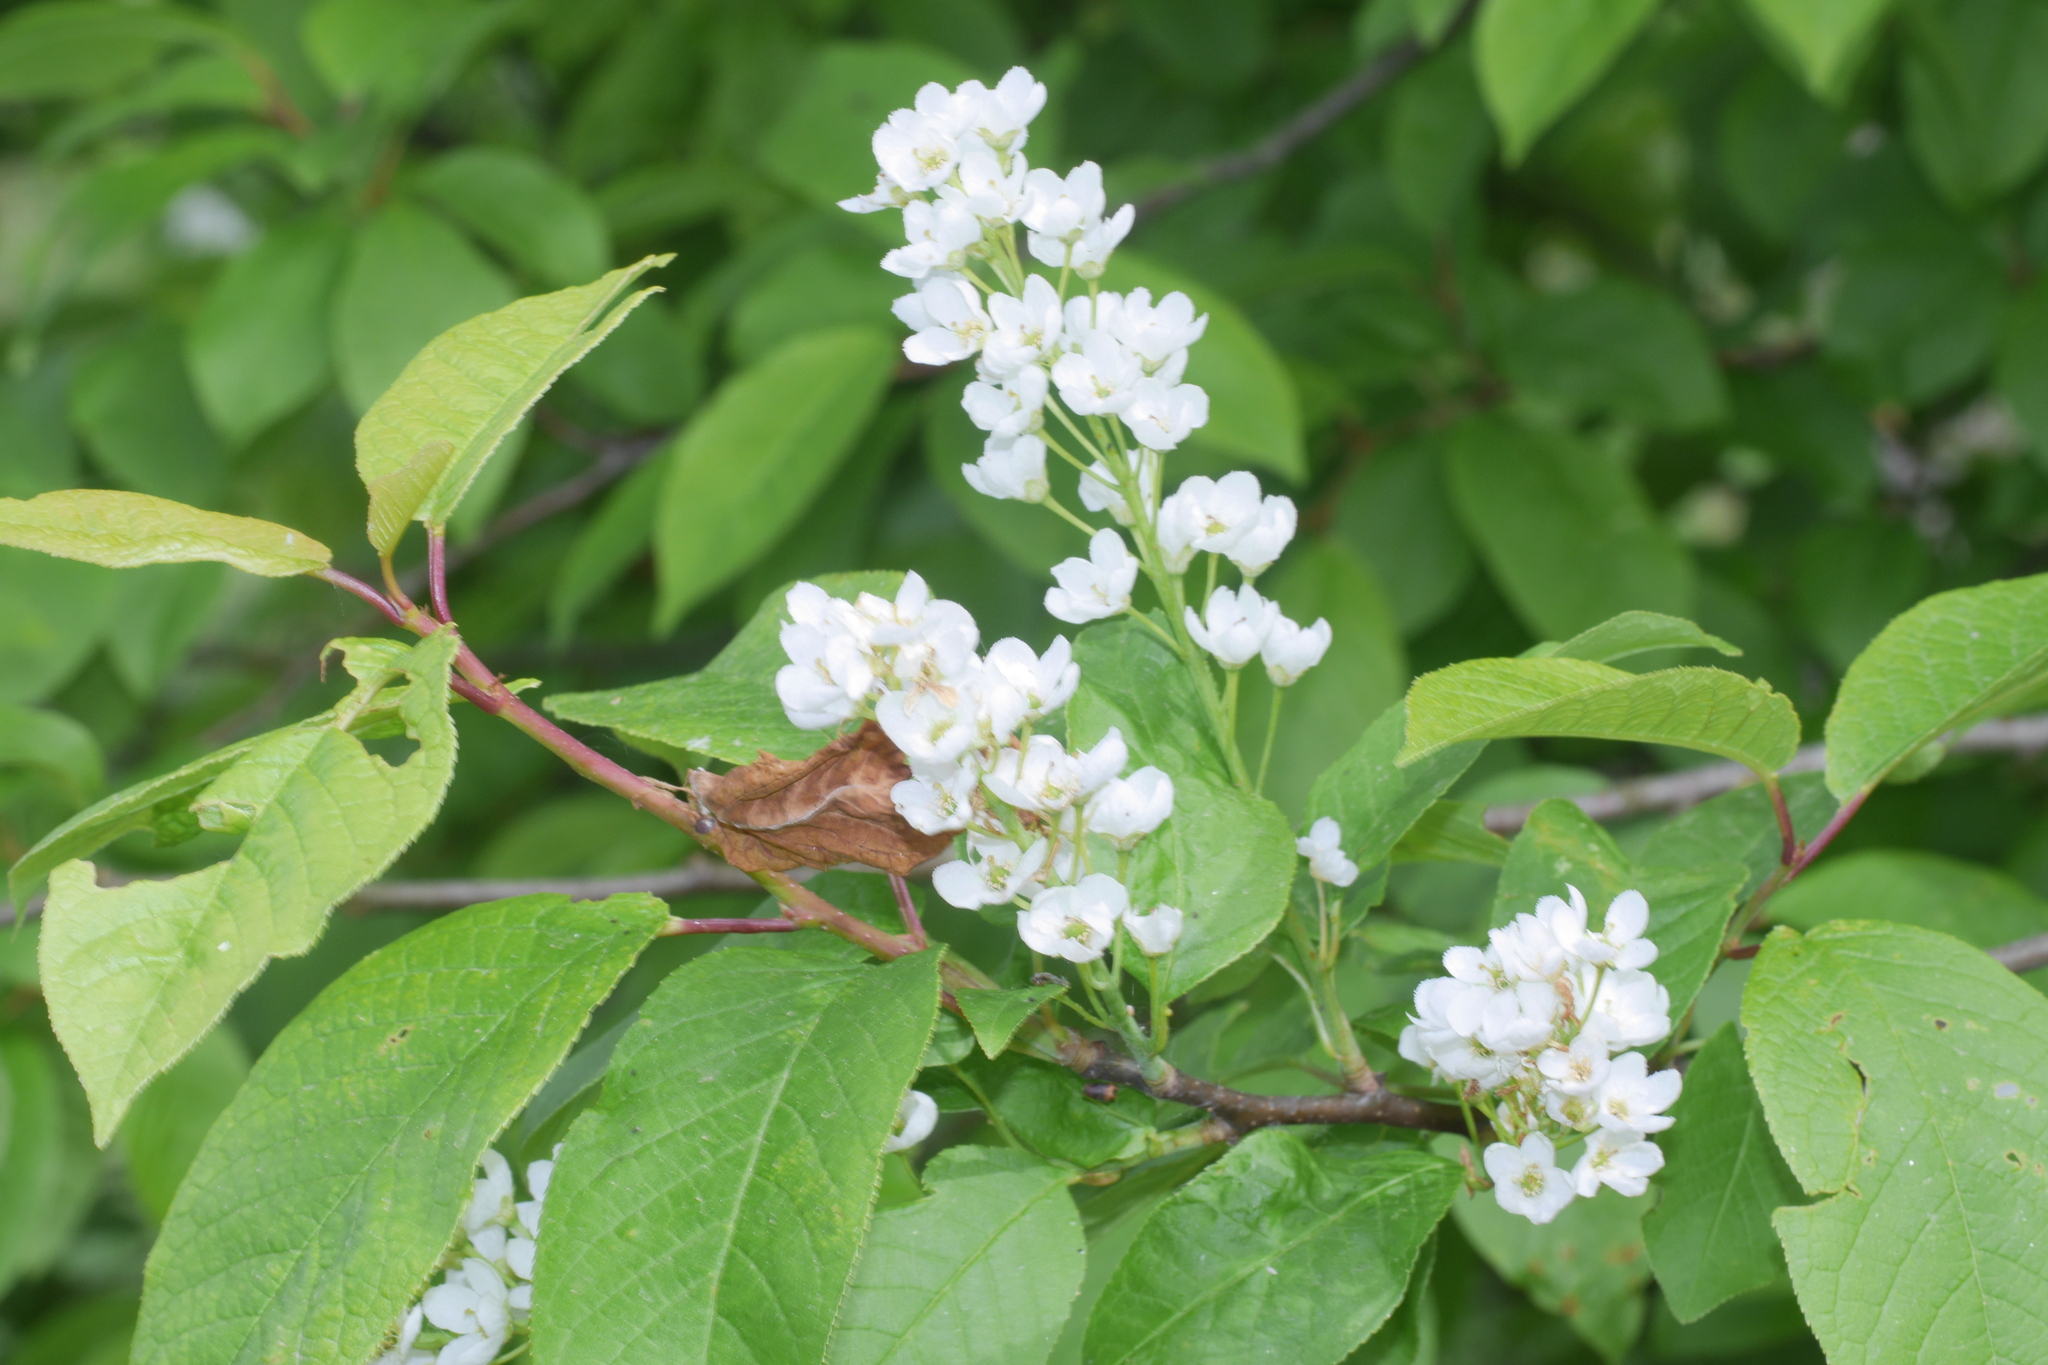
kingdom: Plantae
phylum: Tracheophyta
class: Magnoliopsida
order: Rosales
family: Rosaceae
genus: Prunus
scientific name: Prunus padus
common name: Bird cherry
